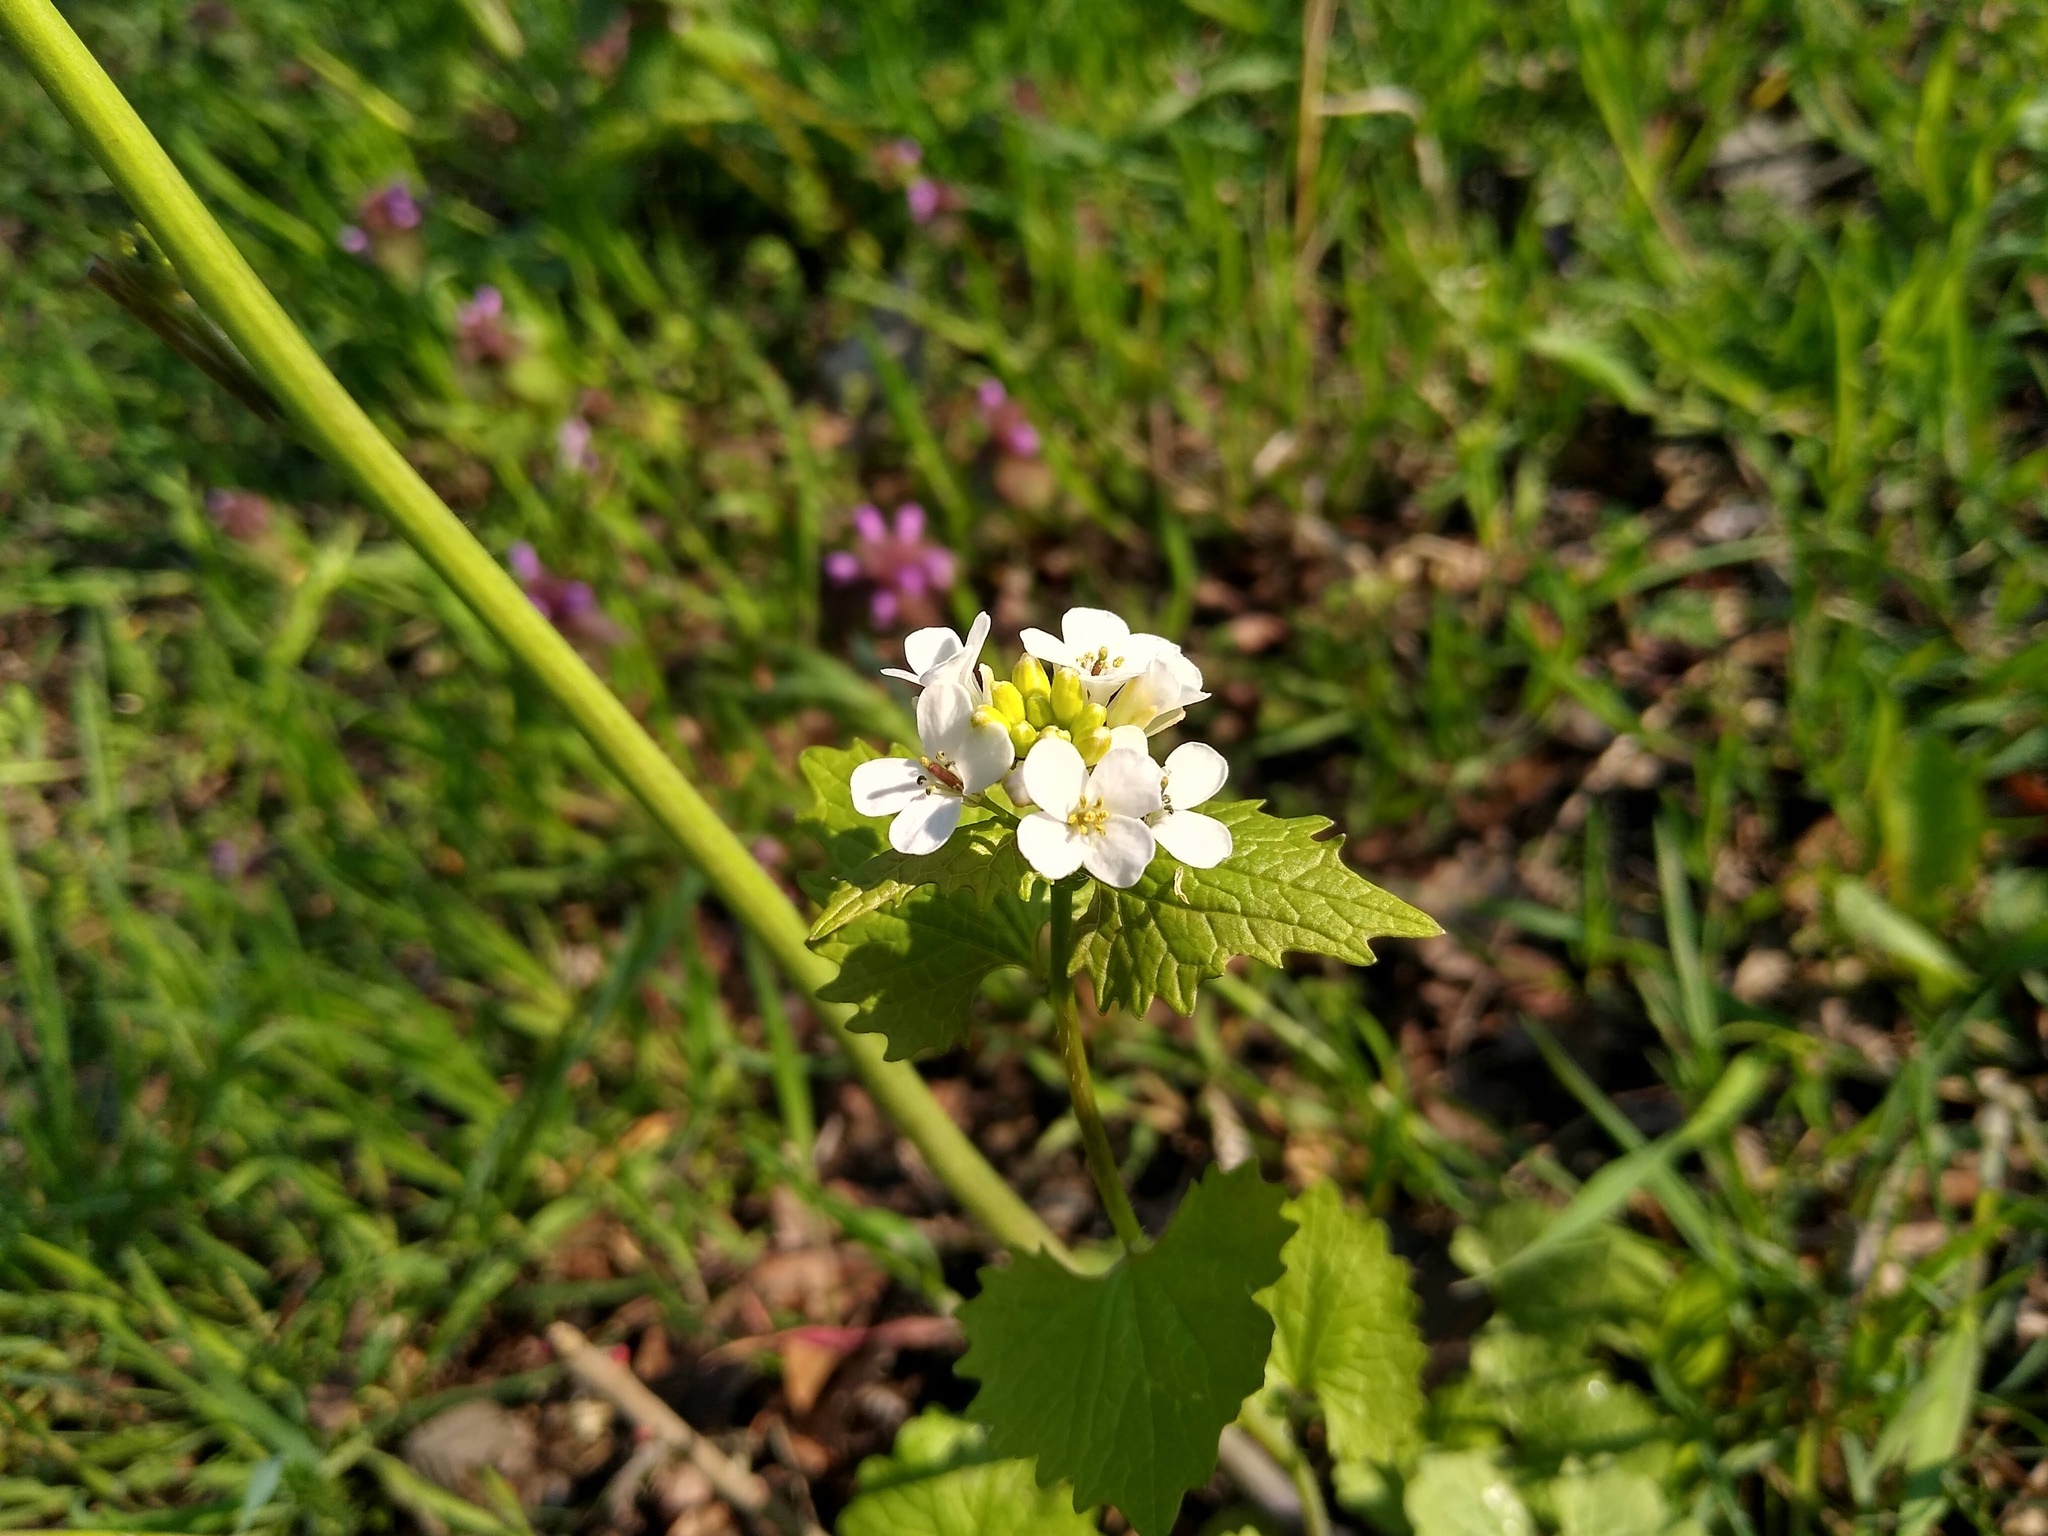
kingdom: Plantae
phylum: Tracheophyta
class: Magnoliopsida
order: Brassicales
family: Brassicaceae
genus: Alliaria
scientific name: Alliaria petiolata
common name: Garlic mustard
